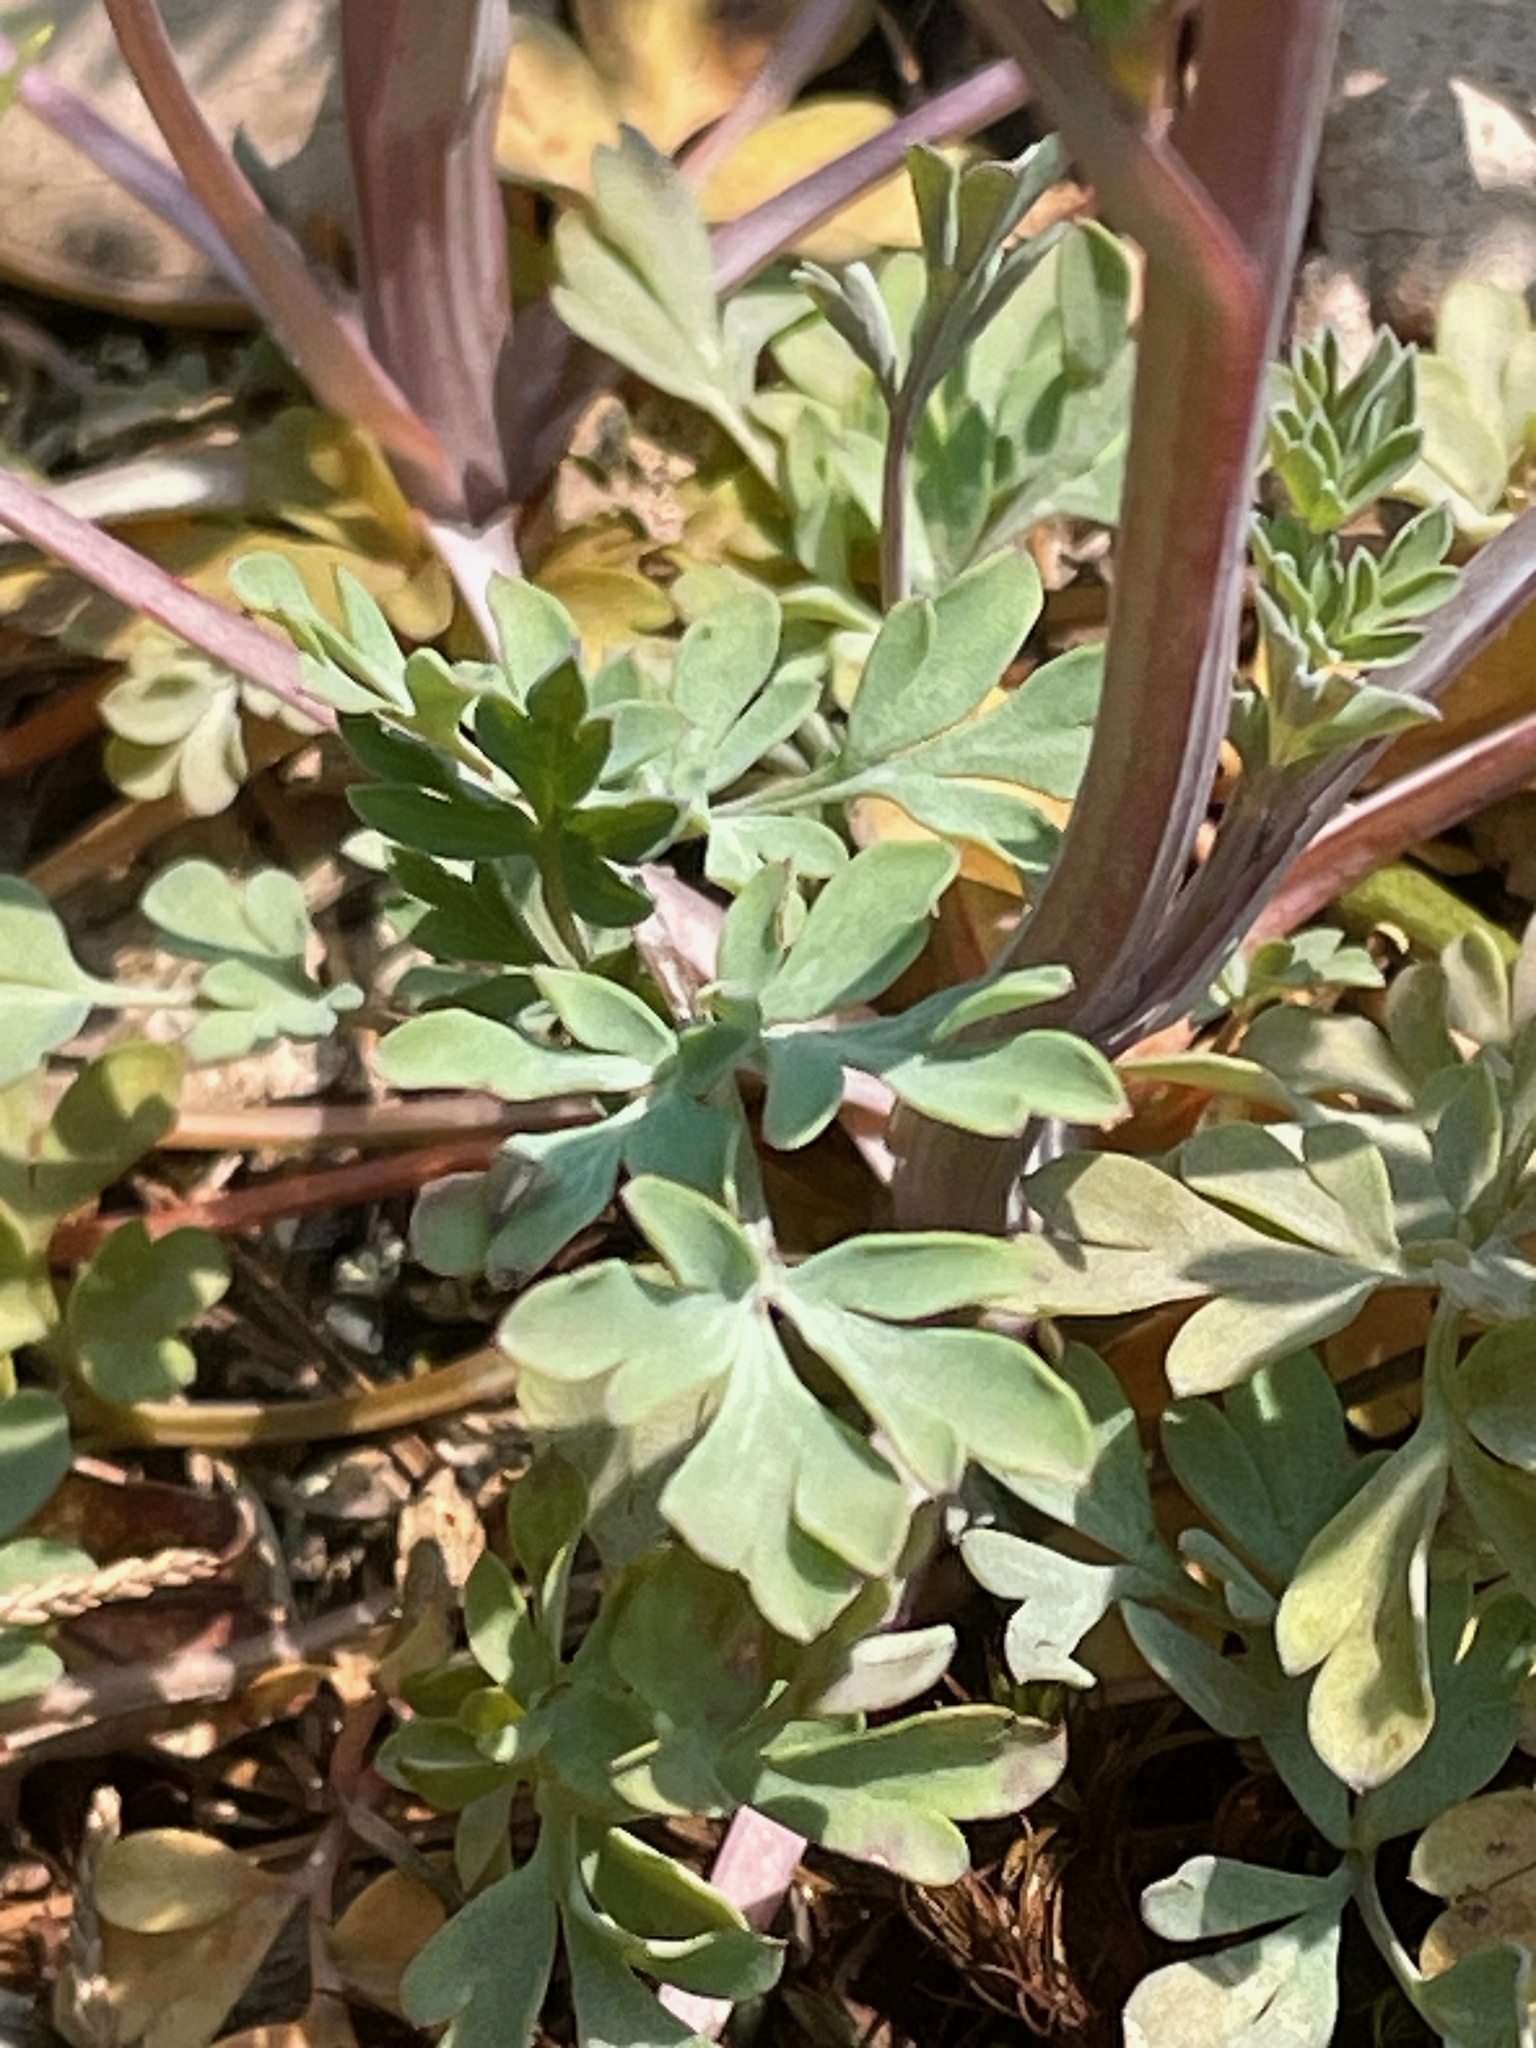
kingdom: Plantae
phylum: Tracheophyta
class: Magnoliopsida
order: Ranunculales
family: Papaveraceae
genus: Capnoides
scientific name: Capnoides sempervirens
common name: Rock harlequin
